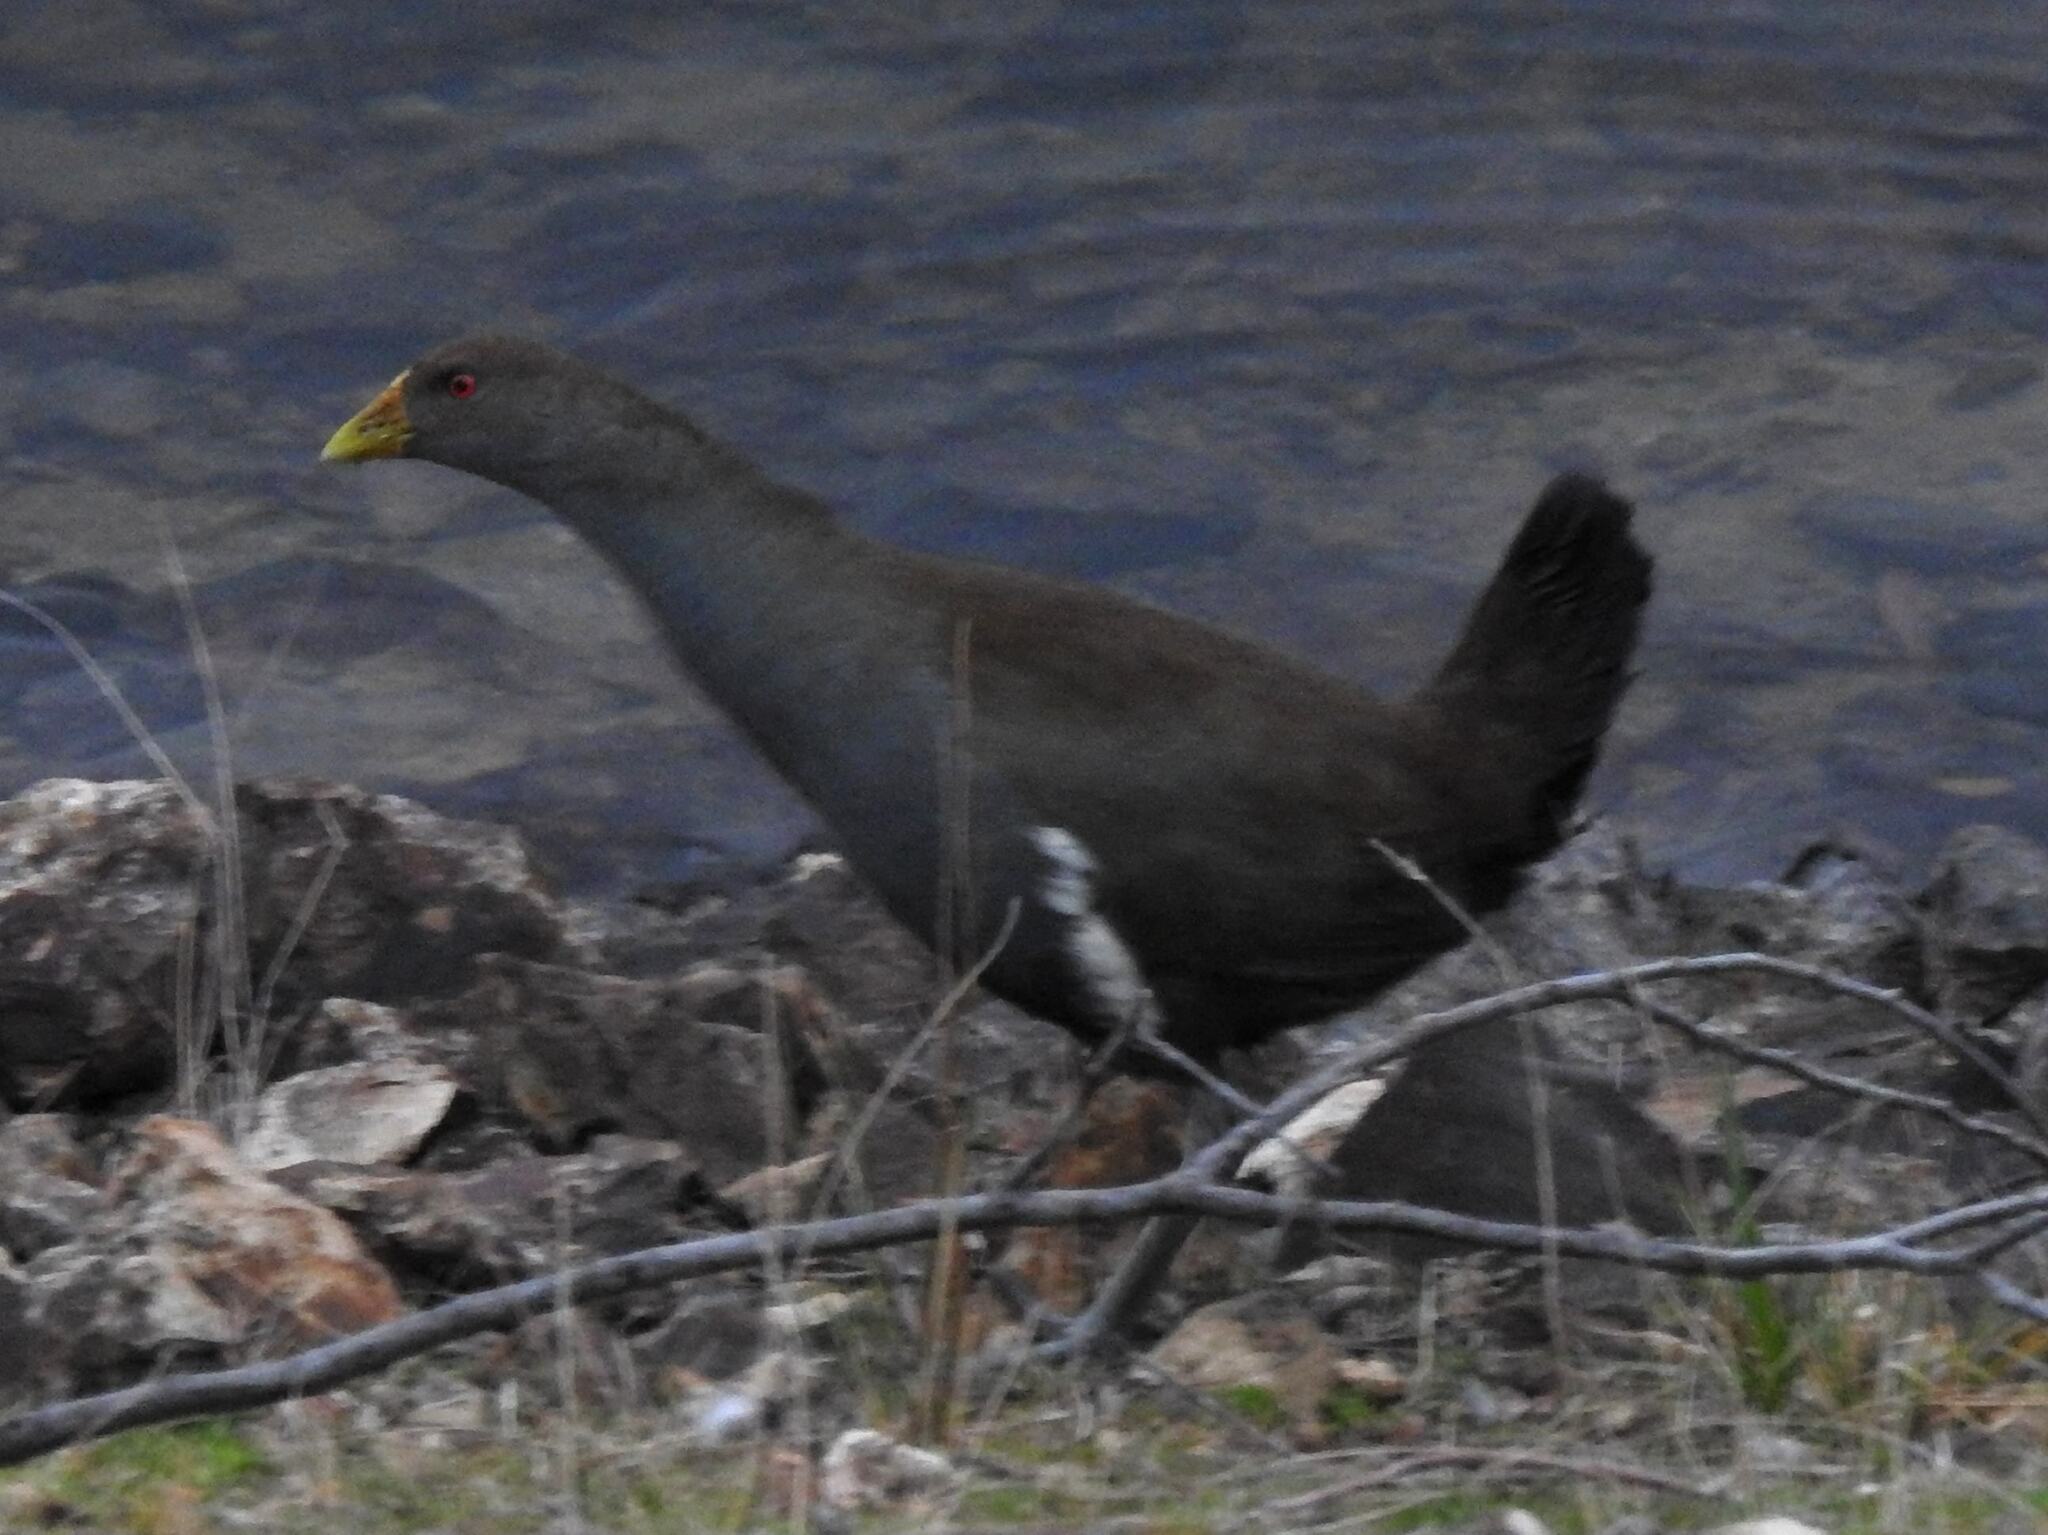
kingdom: Animalia
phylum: Chordata
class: Aves
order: Gruiformes
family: Rallidae
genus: Gallinula
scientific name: Gallinula mortierii
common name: Tasmanian nativehen
